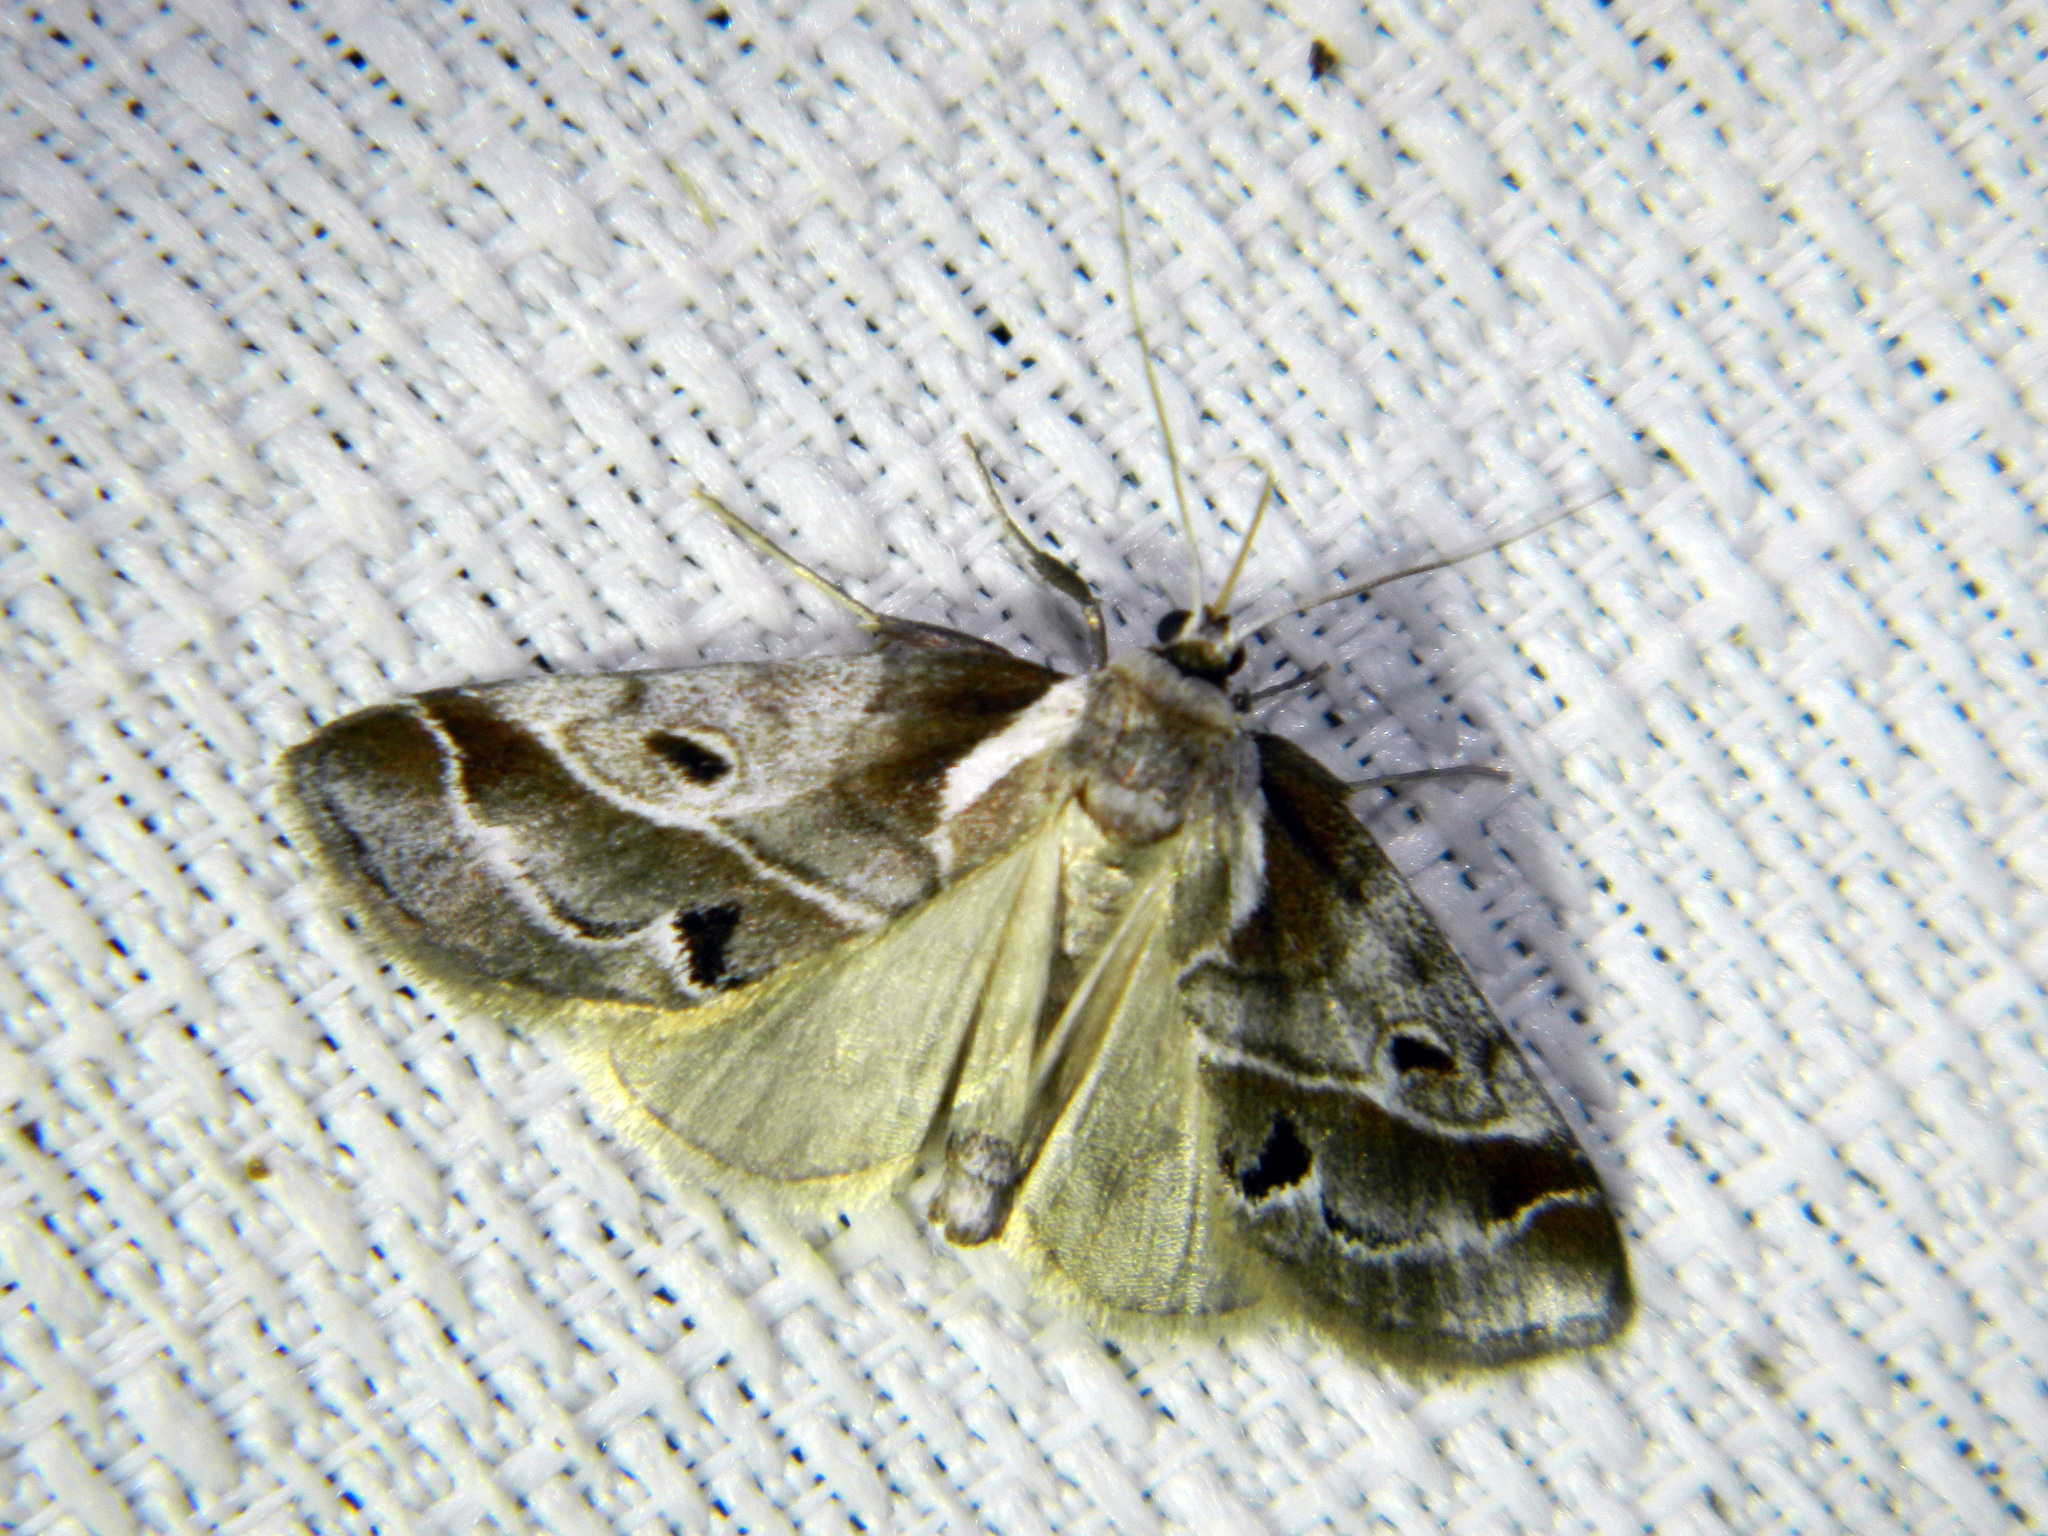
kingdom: Animalia
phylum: Arthropoda
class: Insecta
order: Lepidoptera
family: Nolidae
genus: Baileya
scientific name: Baileya doubledayi
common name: Doubleday's baileya moth
